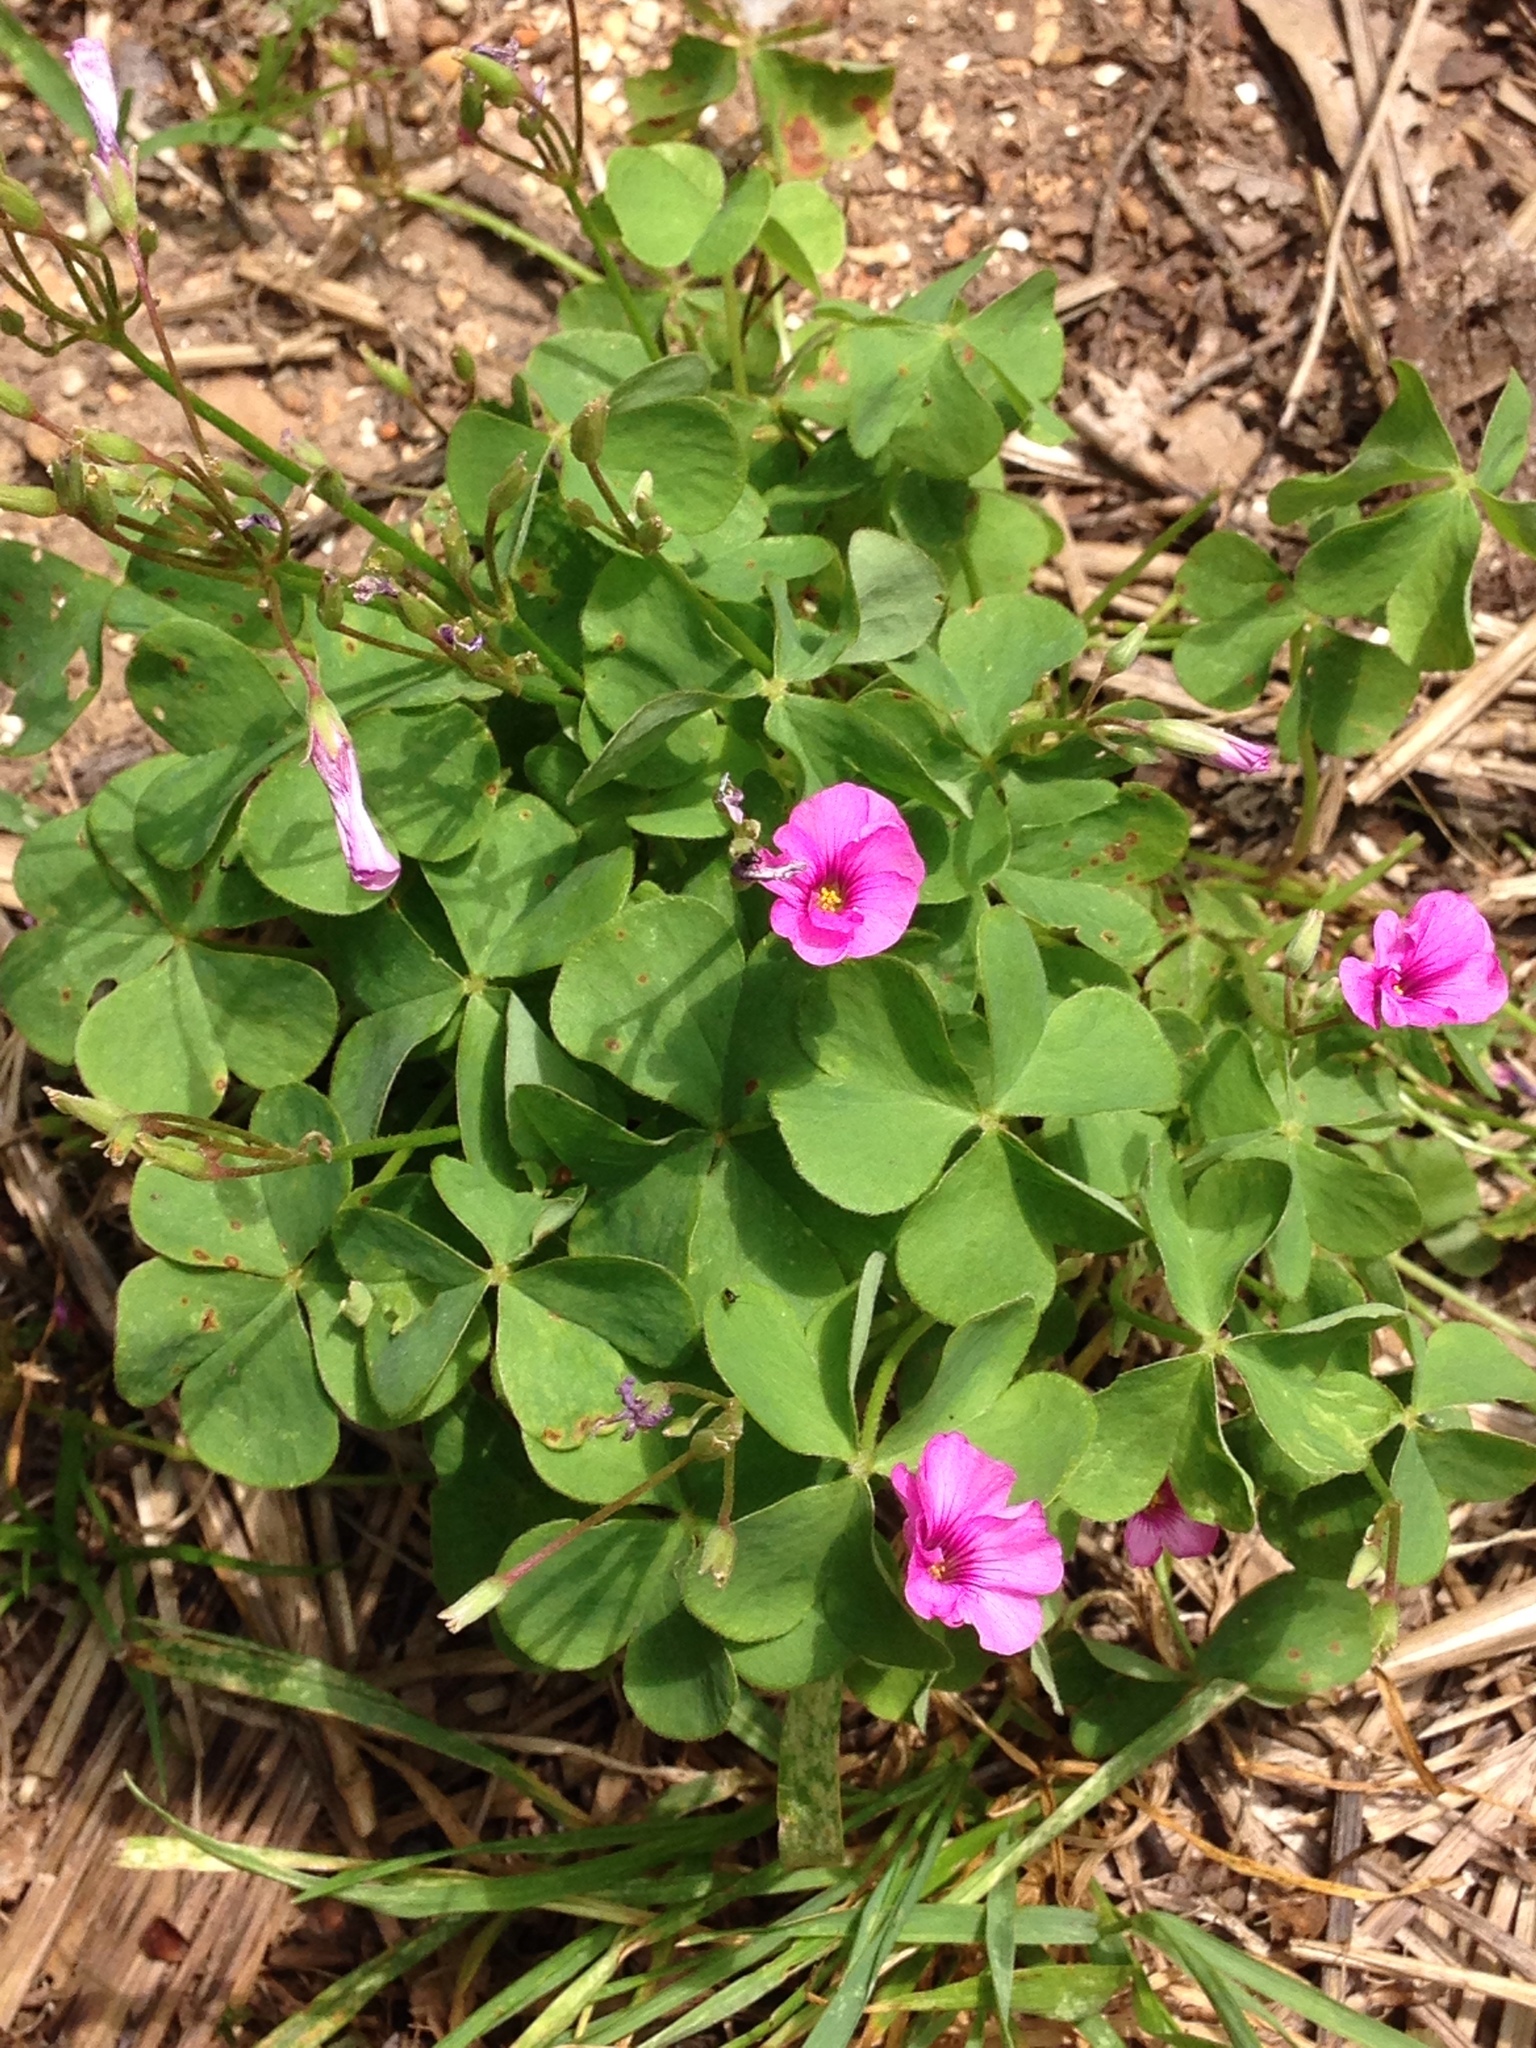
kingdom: Plantae
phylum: Tracheophyta
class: Magnoliopsida
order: Oxalidales
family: Oxalidaceae
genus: Oxalis
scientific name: Oxalis articulata
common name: Pink-sorrel
